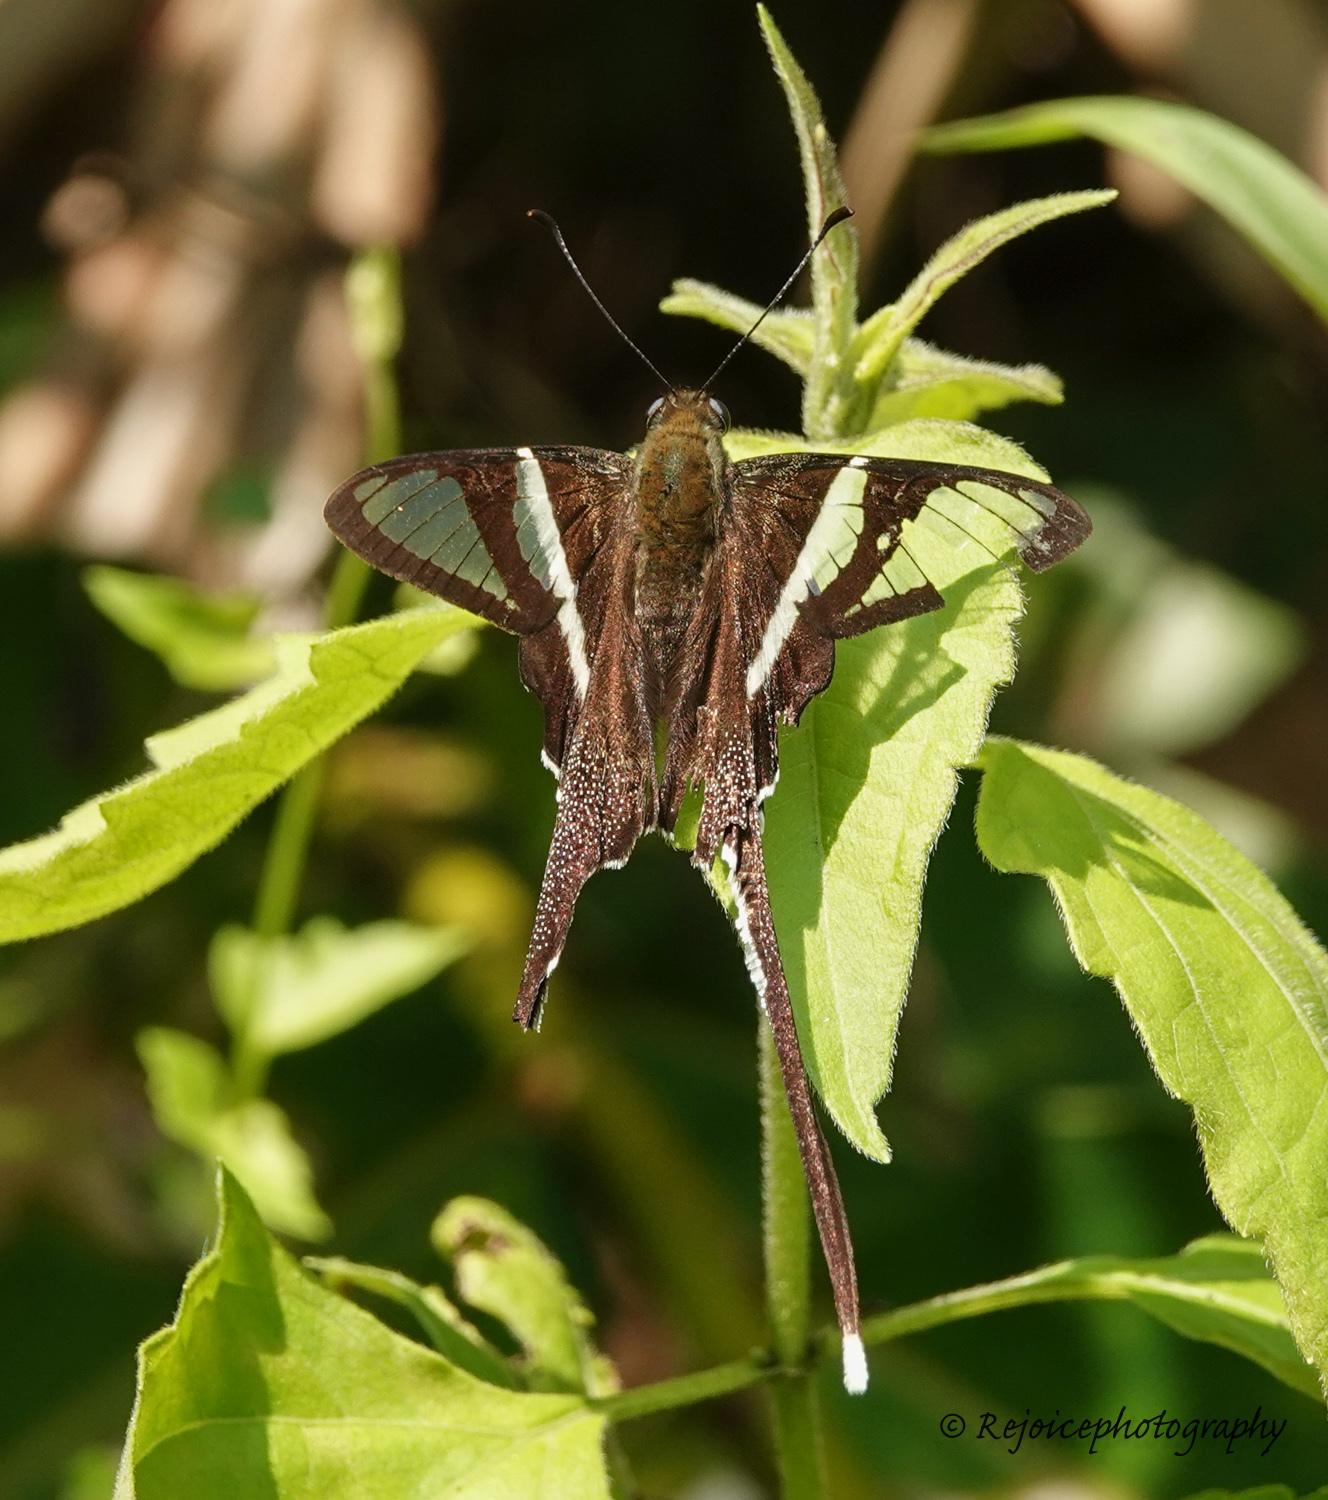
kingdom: Animalia
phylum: Arthropoda
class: Insecta
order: Lepidoptera
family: Papilionidae
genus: Lamproptera
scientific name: Lamproptera curius
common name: White dragontail
